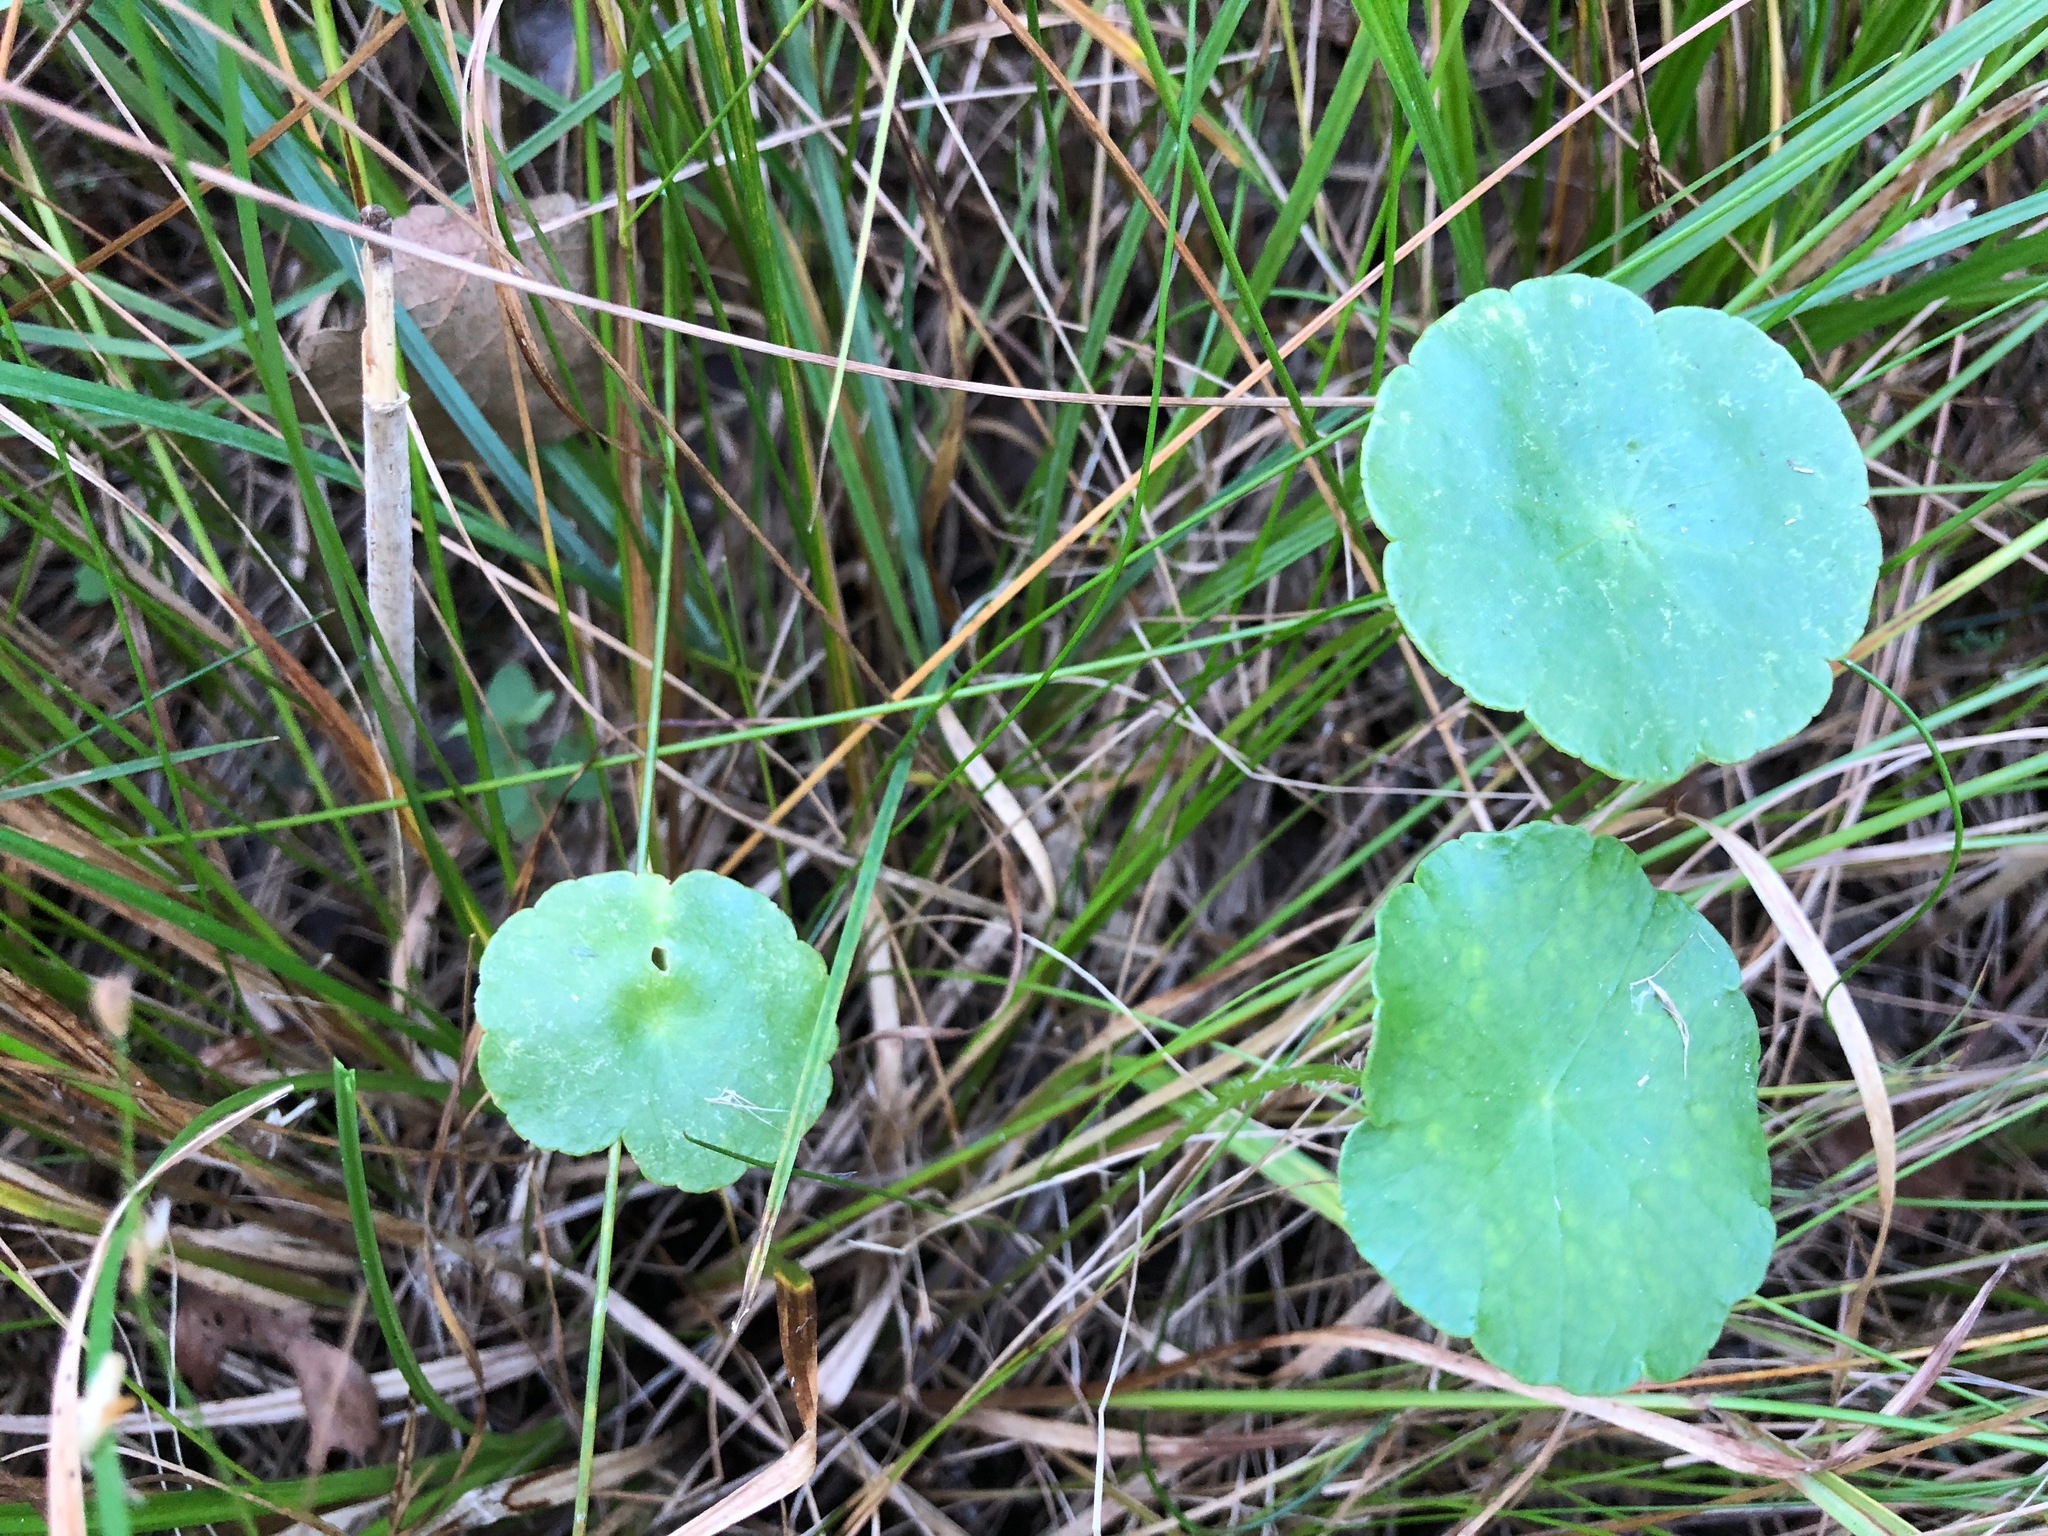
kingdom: Plantae
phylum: Tracheophyta
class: Magnoliopsida
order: Apiales
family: Araliaceae
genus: Hydrocotyle
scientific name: Hydrocotyle vulgaris
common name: Marsh pennywort
